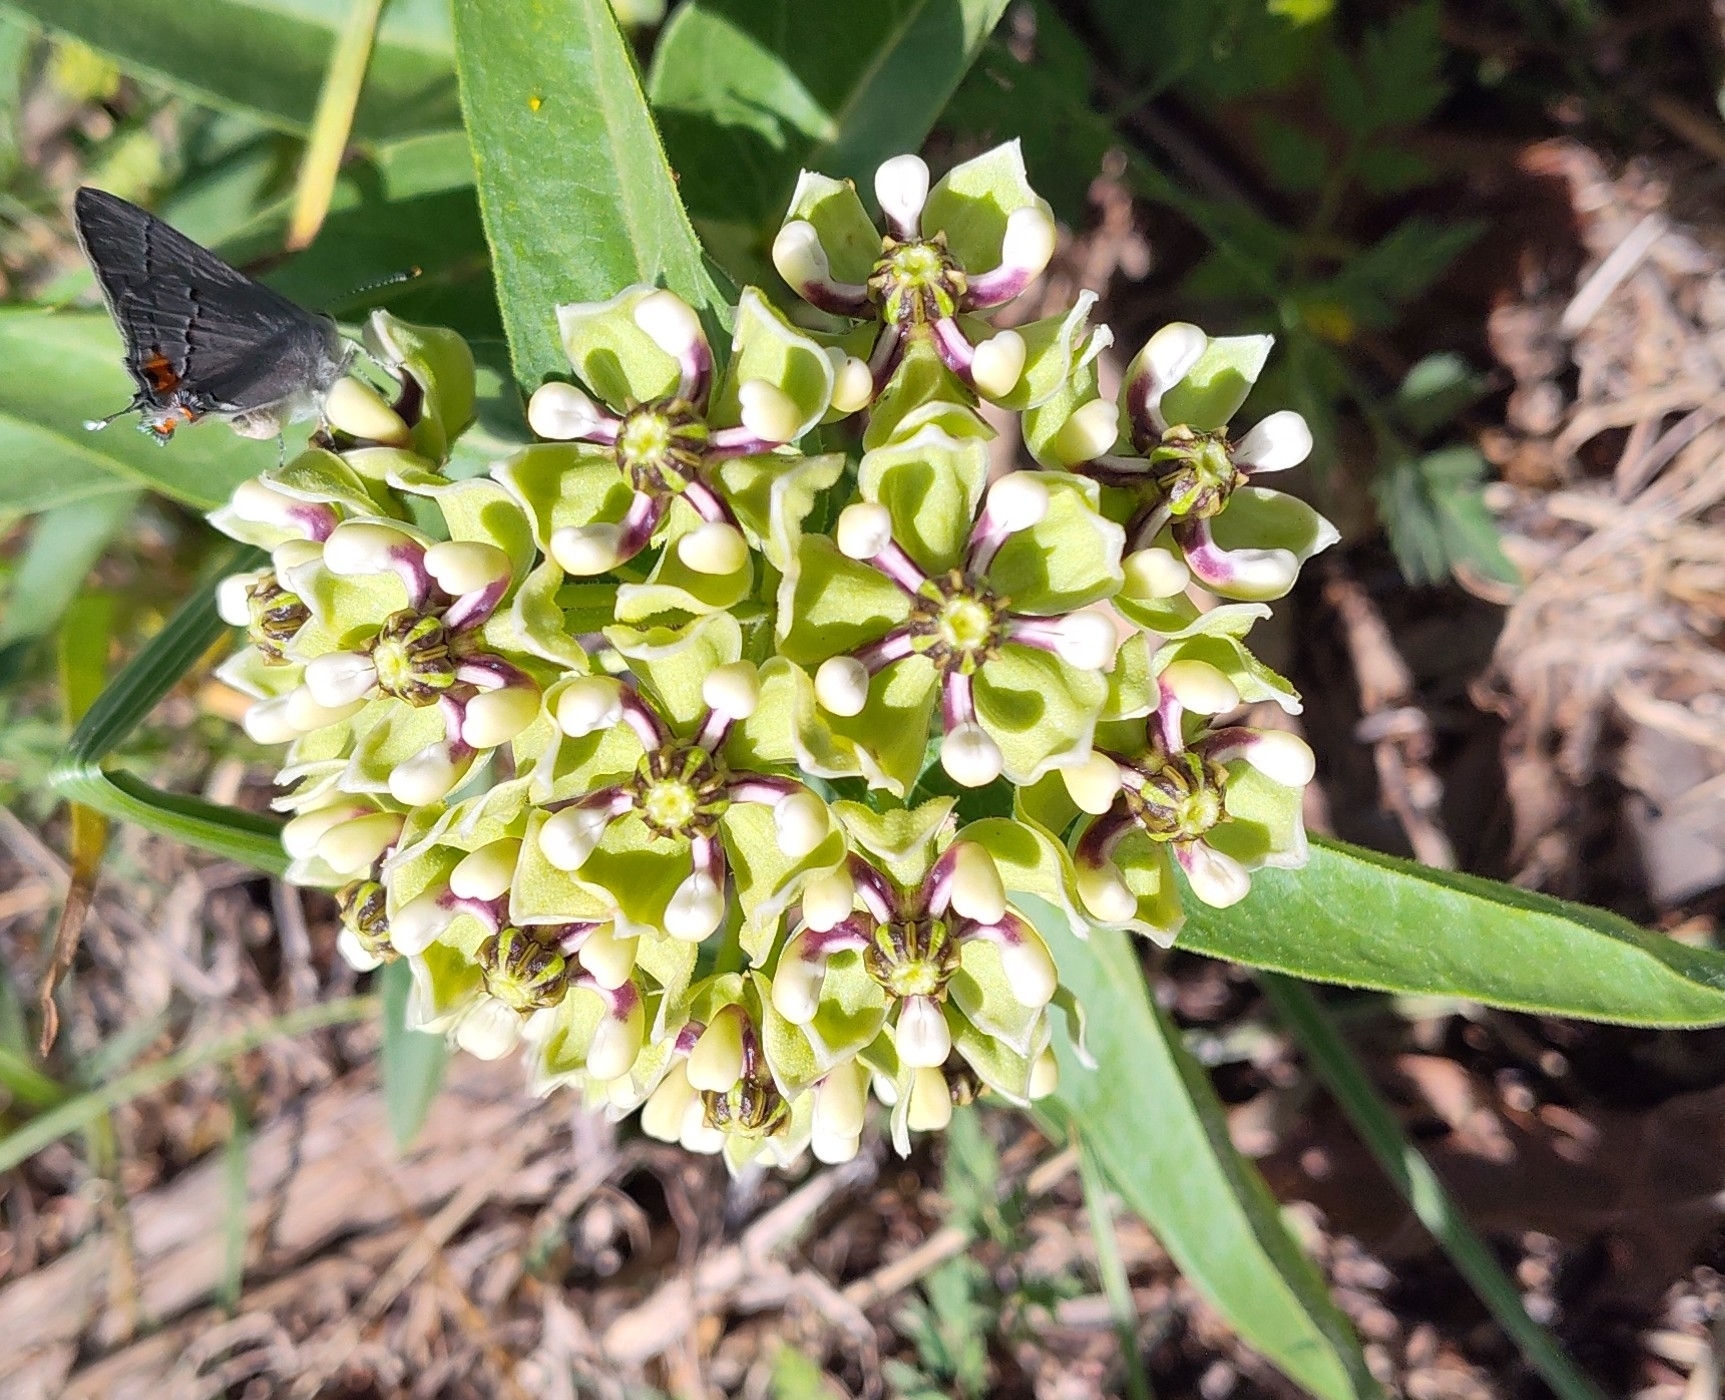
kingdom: Plantae
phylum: Tracheophyta
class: Magnoliopsida
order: Gentianales
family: Apocynaceae
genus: Asclepias
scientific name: Asclepias asperula
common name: Antelope horns
